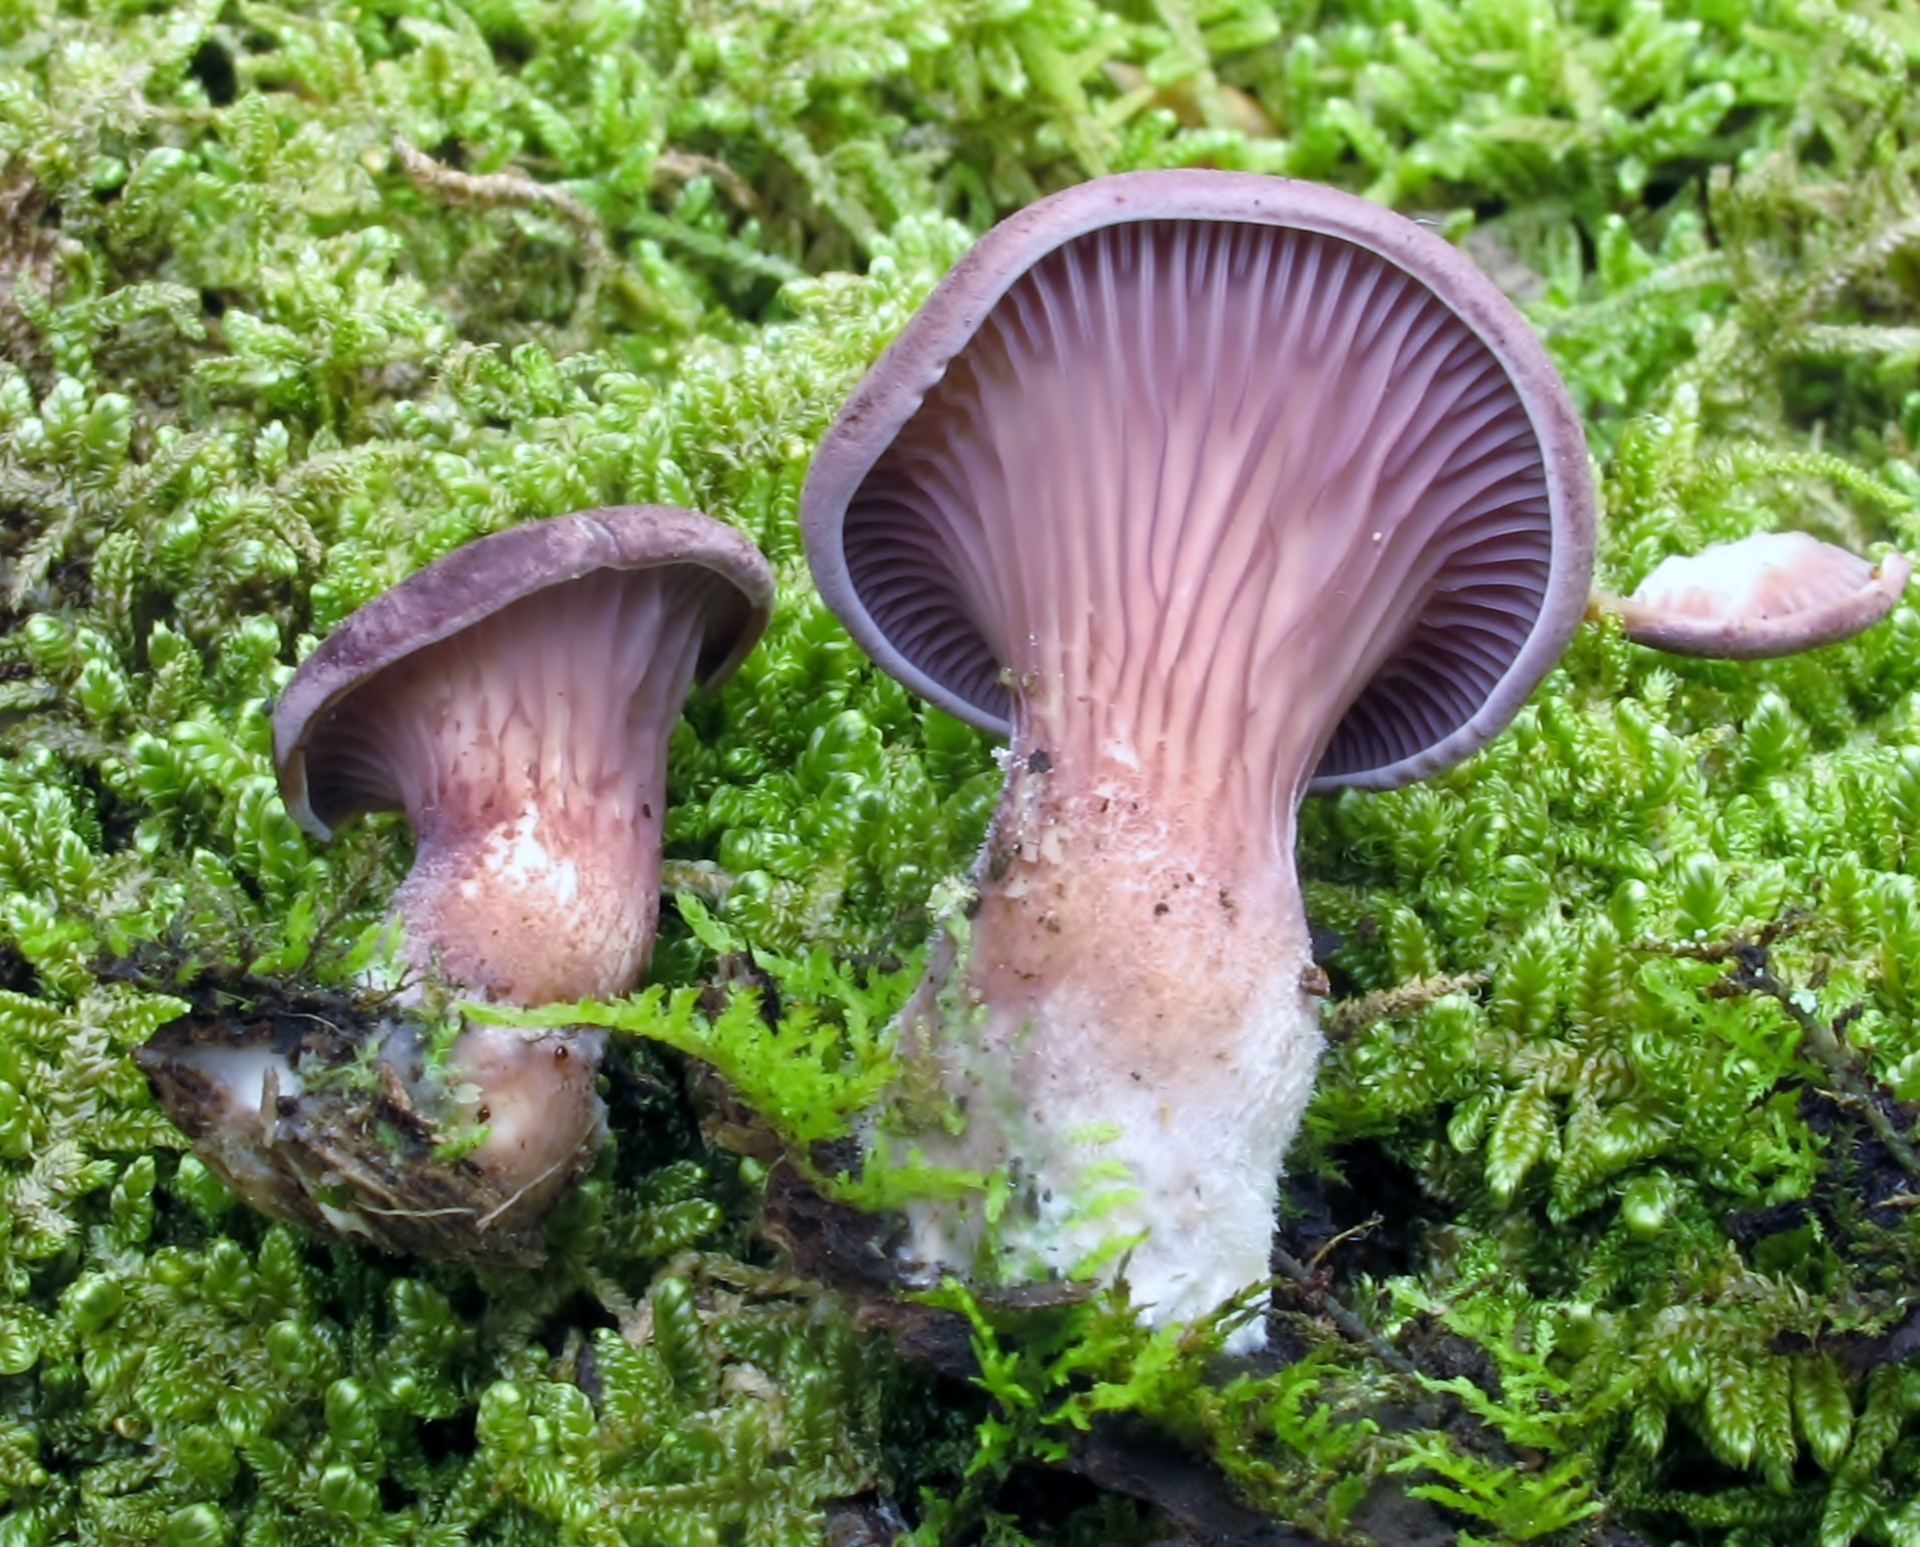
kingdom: Fungi
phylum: Basidiomycota
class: Agaricomycetes
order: Polyporales
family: Panaceae
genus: Panus
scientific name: Panus conchatus
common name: Lilac oysterling
